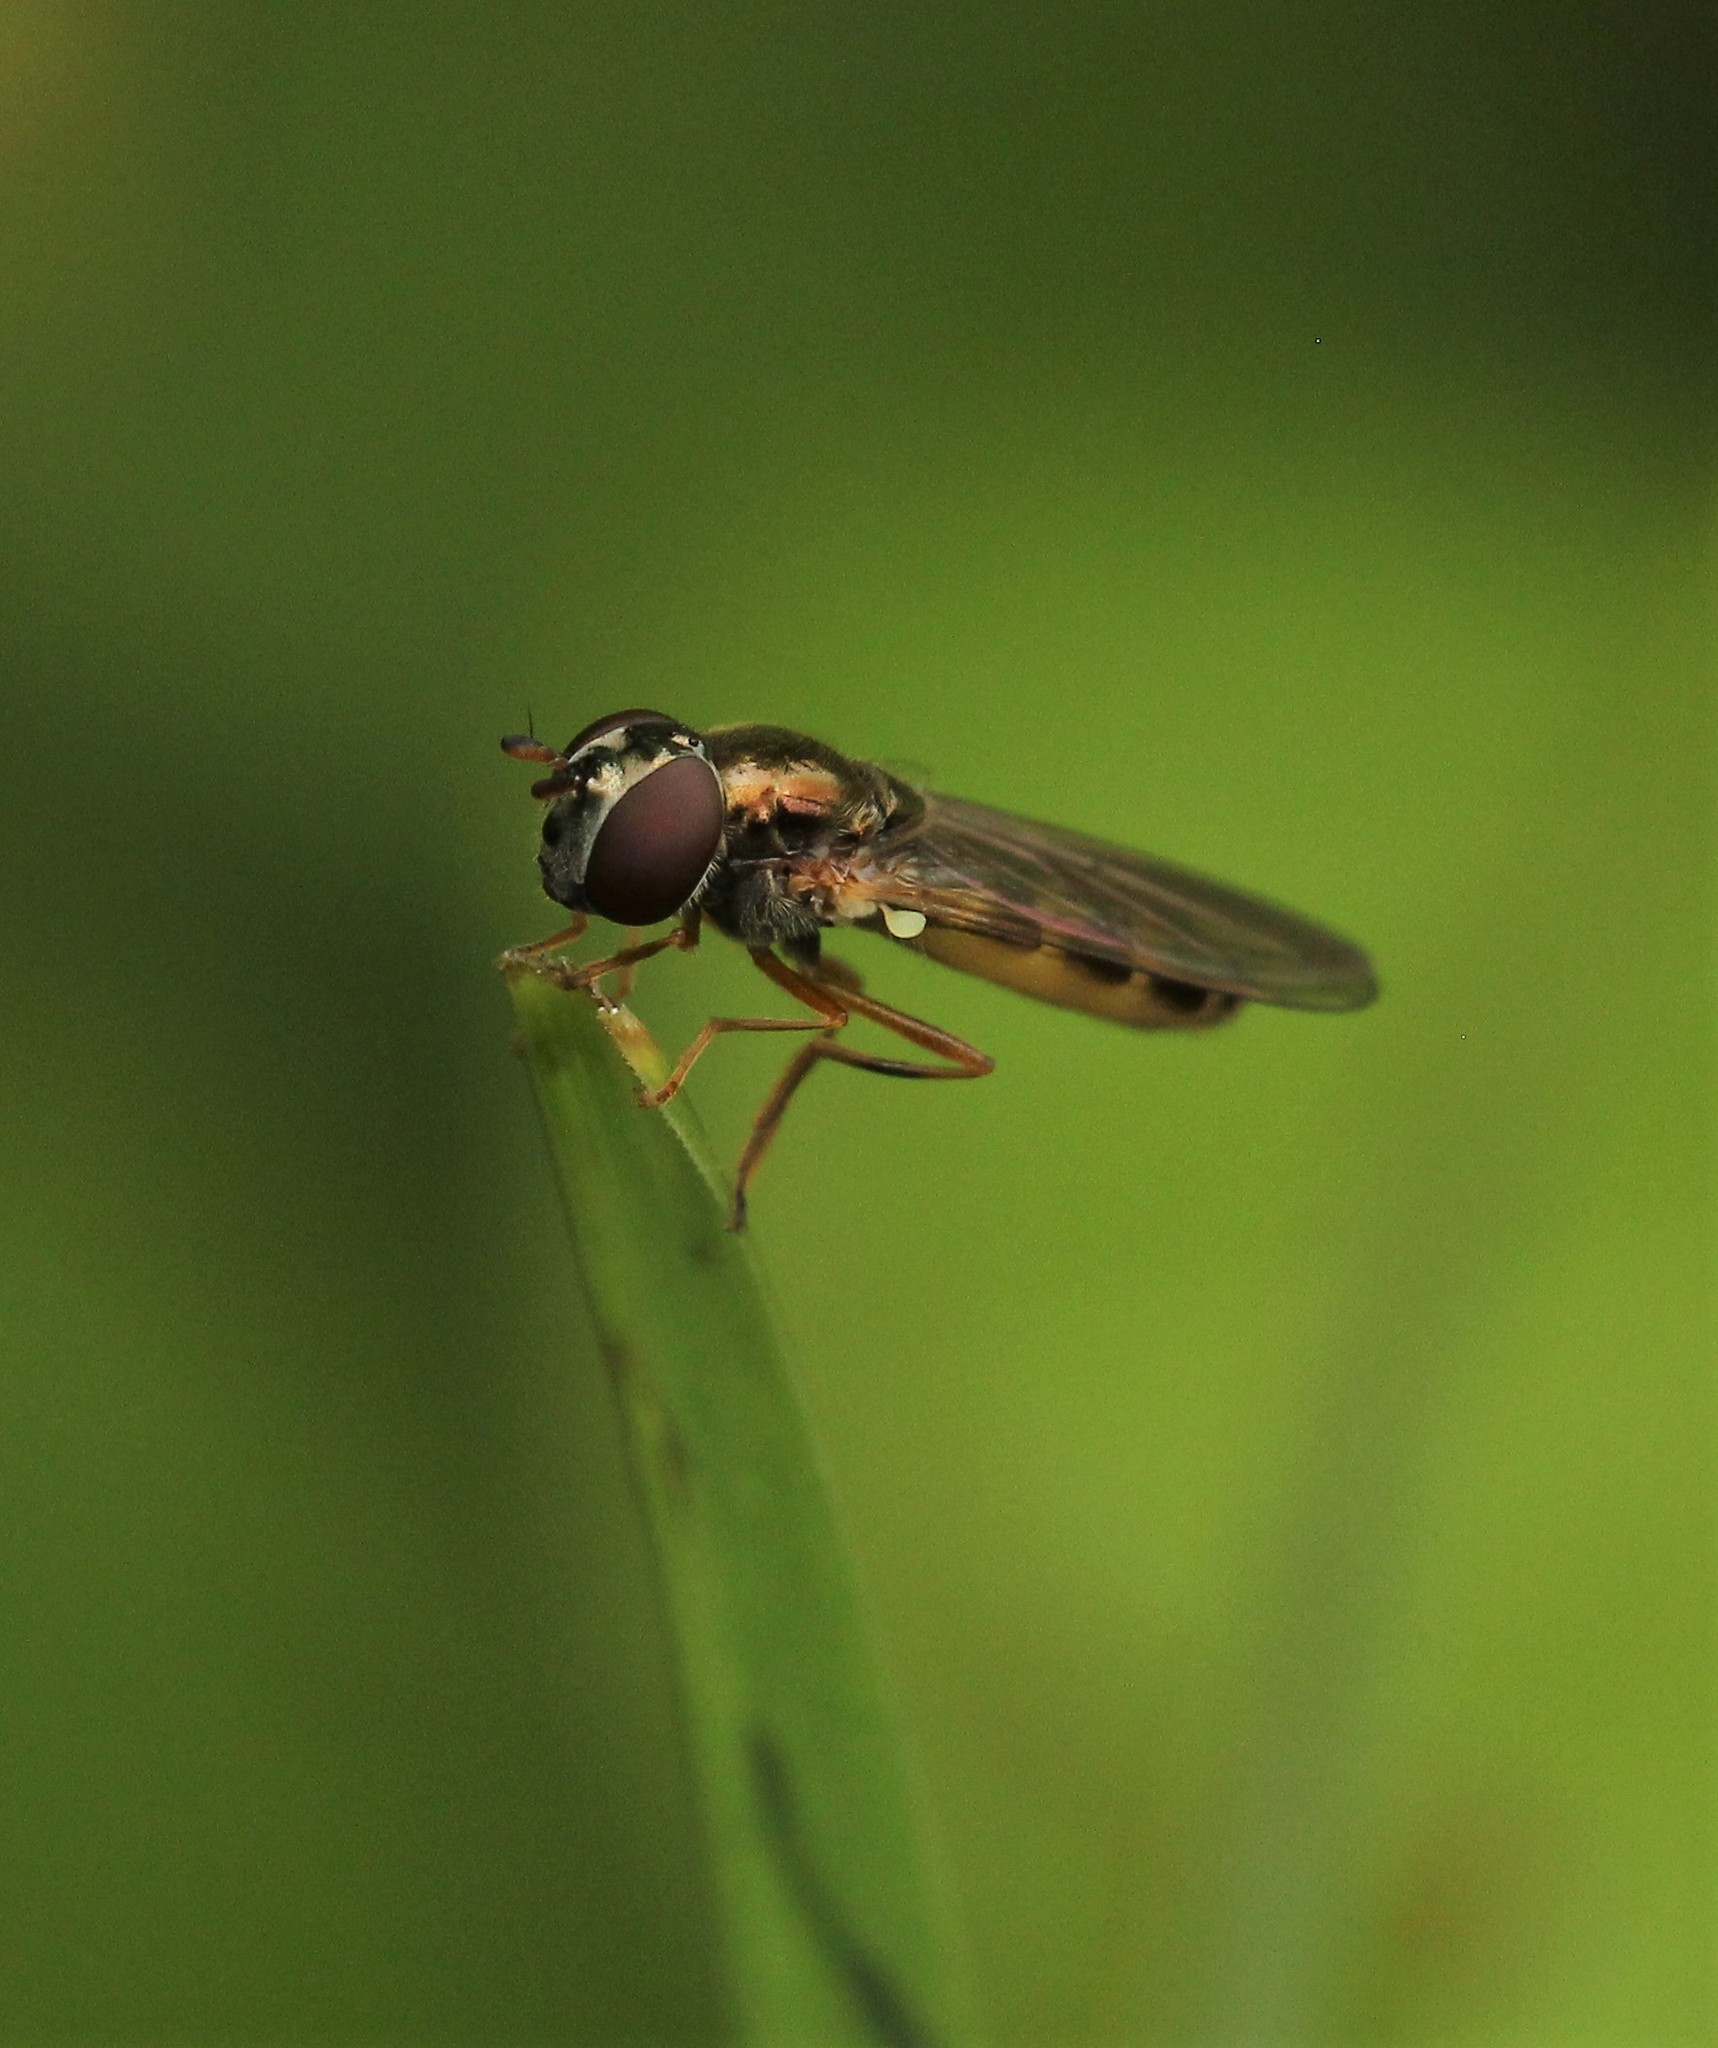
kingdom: Animalia
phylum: Arthropoda
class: Insecta
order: Diptera
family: Syrphidae
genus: Melanostoma
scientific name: Melanostoma mellina
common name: Hover fly
